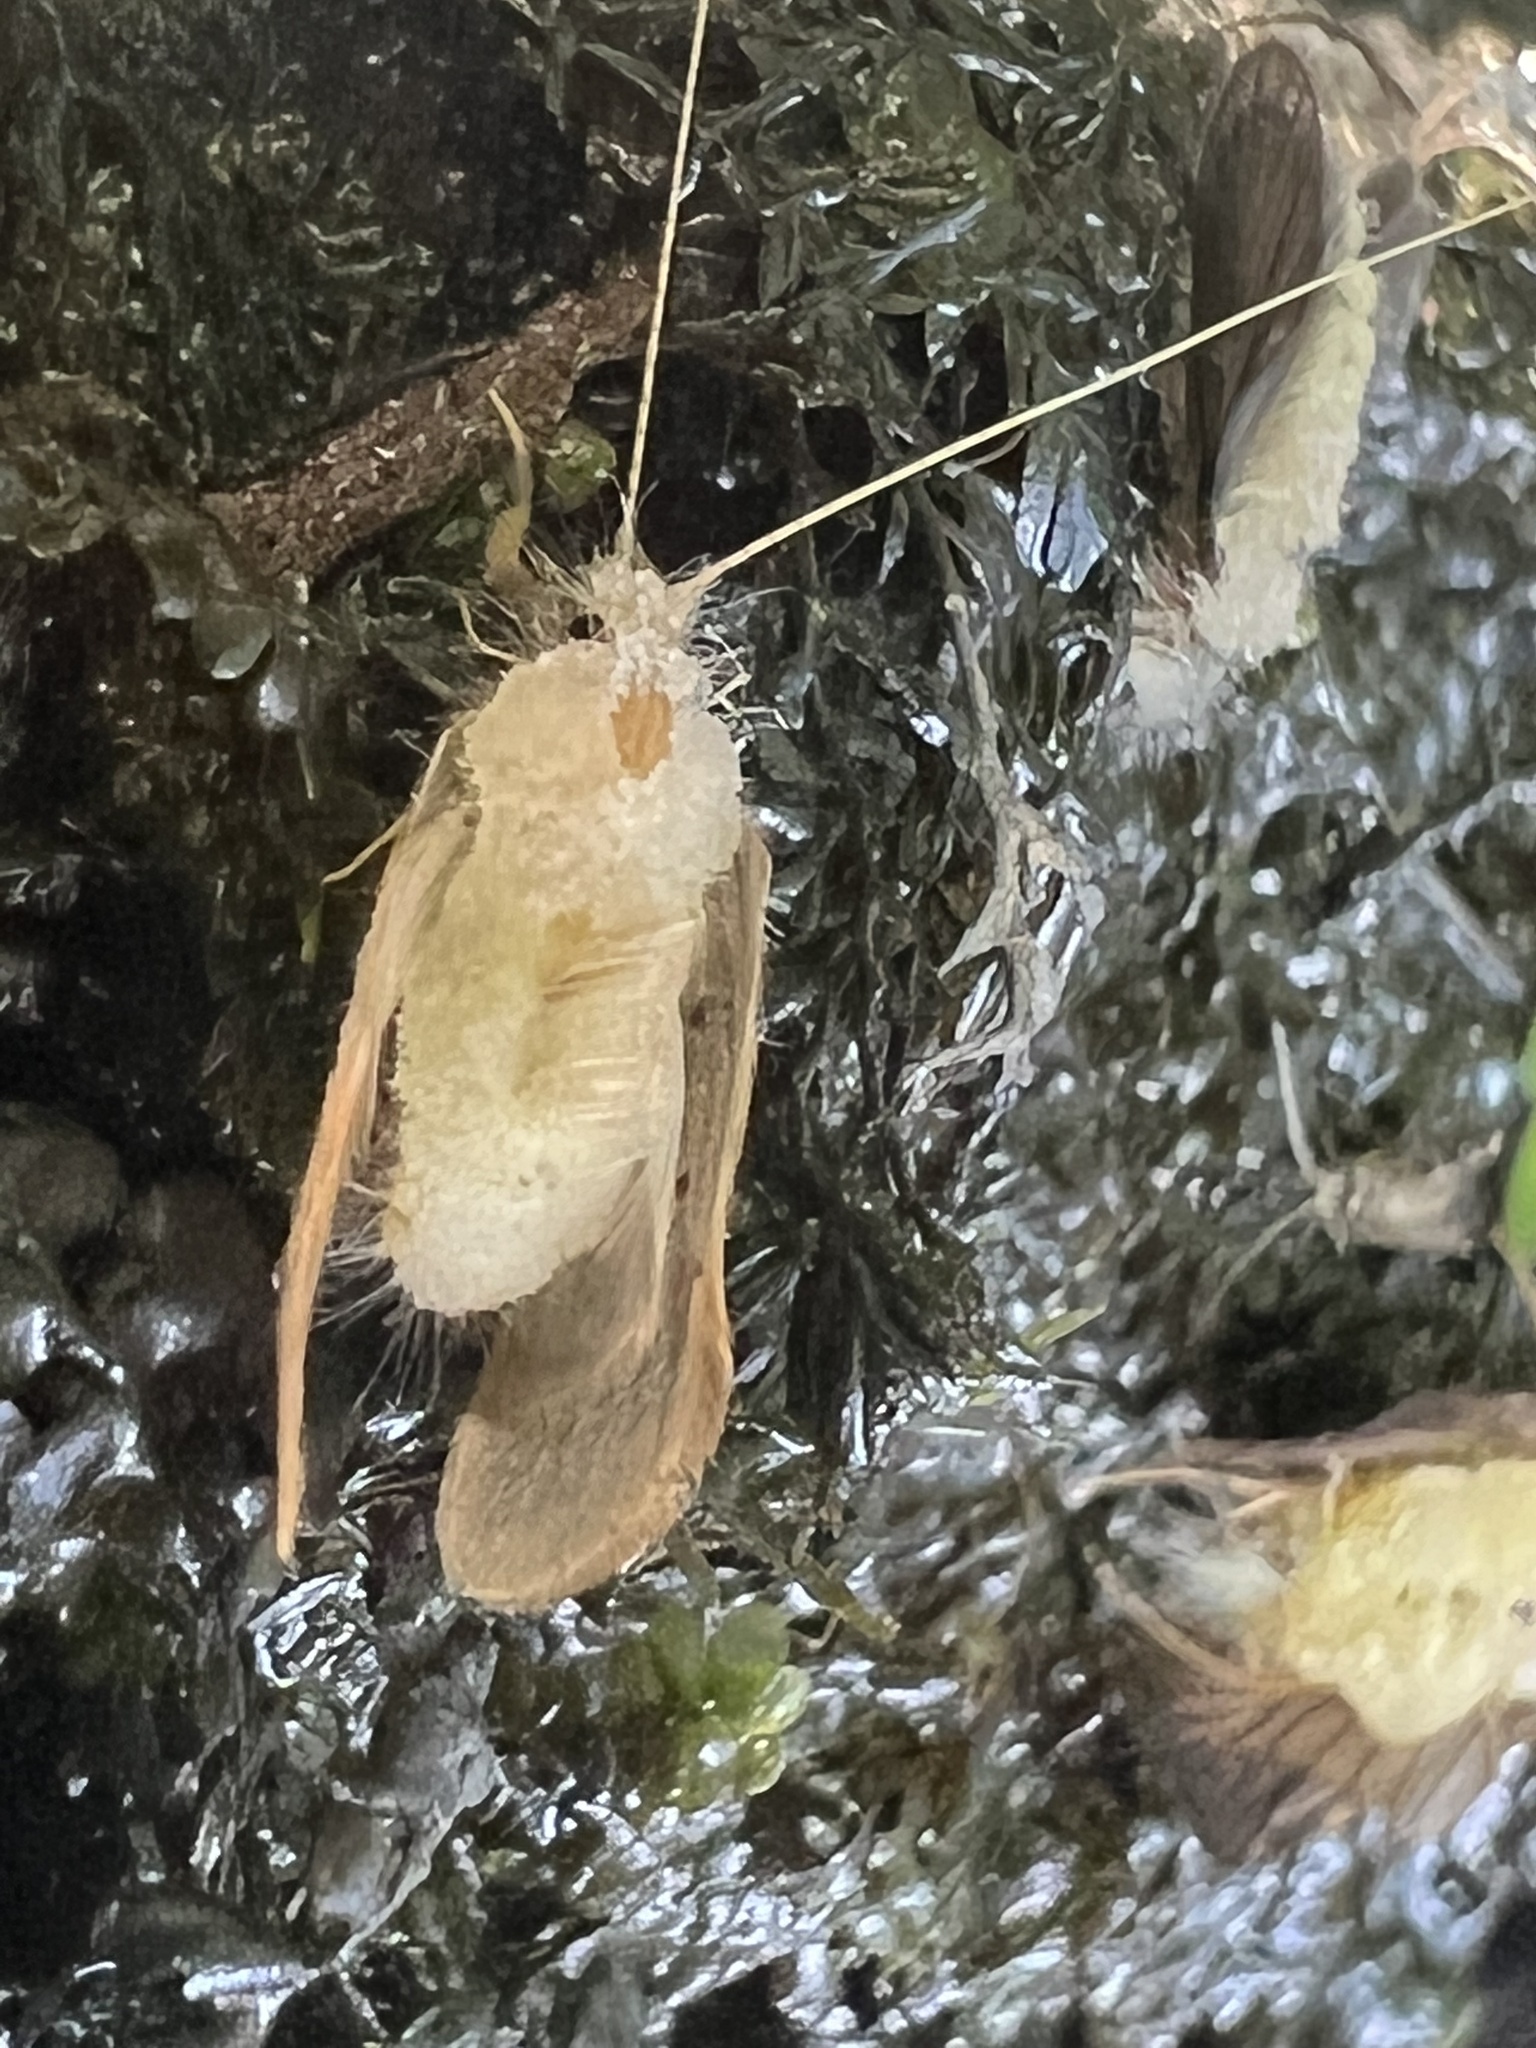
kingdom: Fungi
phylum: Entomophthoromycota
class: Entomophthoromycetes
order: Entomophthorales
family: Entomophthoraceae
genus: Erynia
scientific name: Erynia rhizospora
